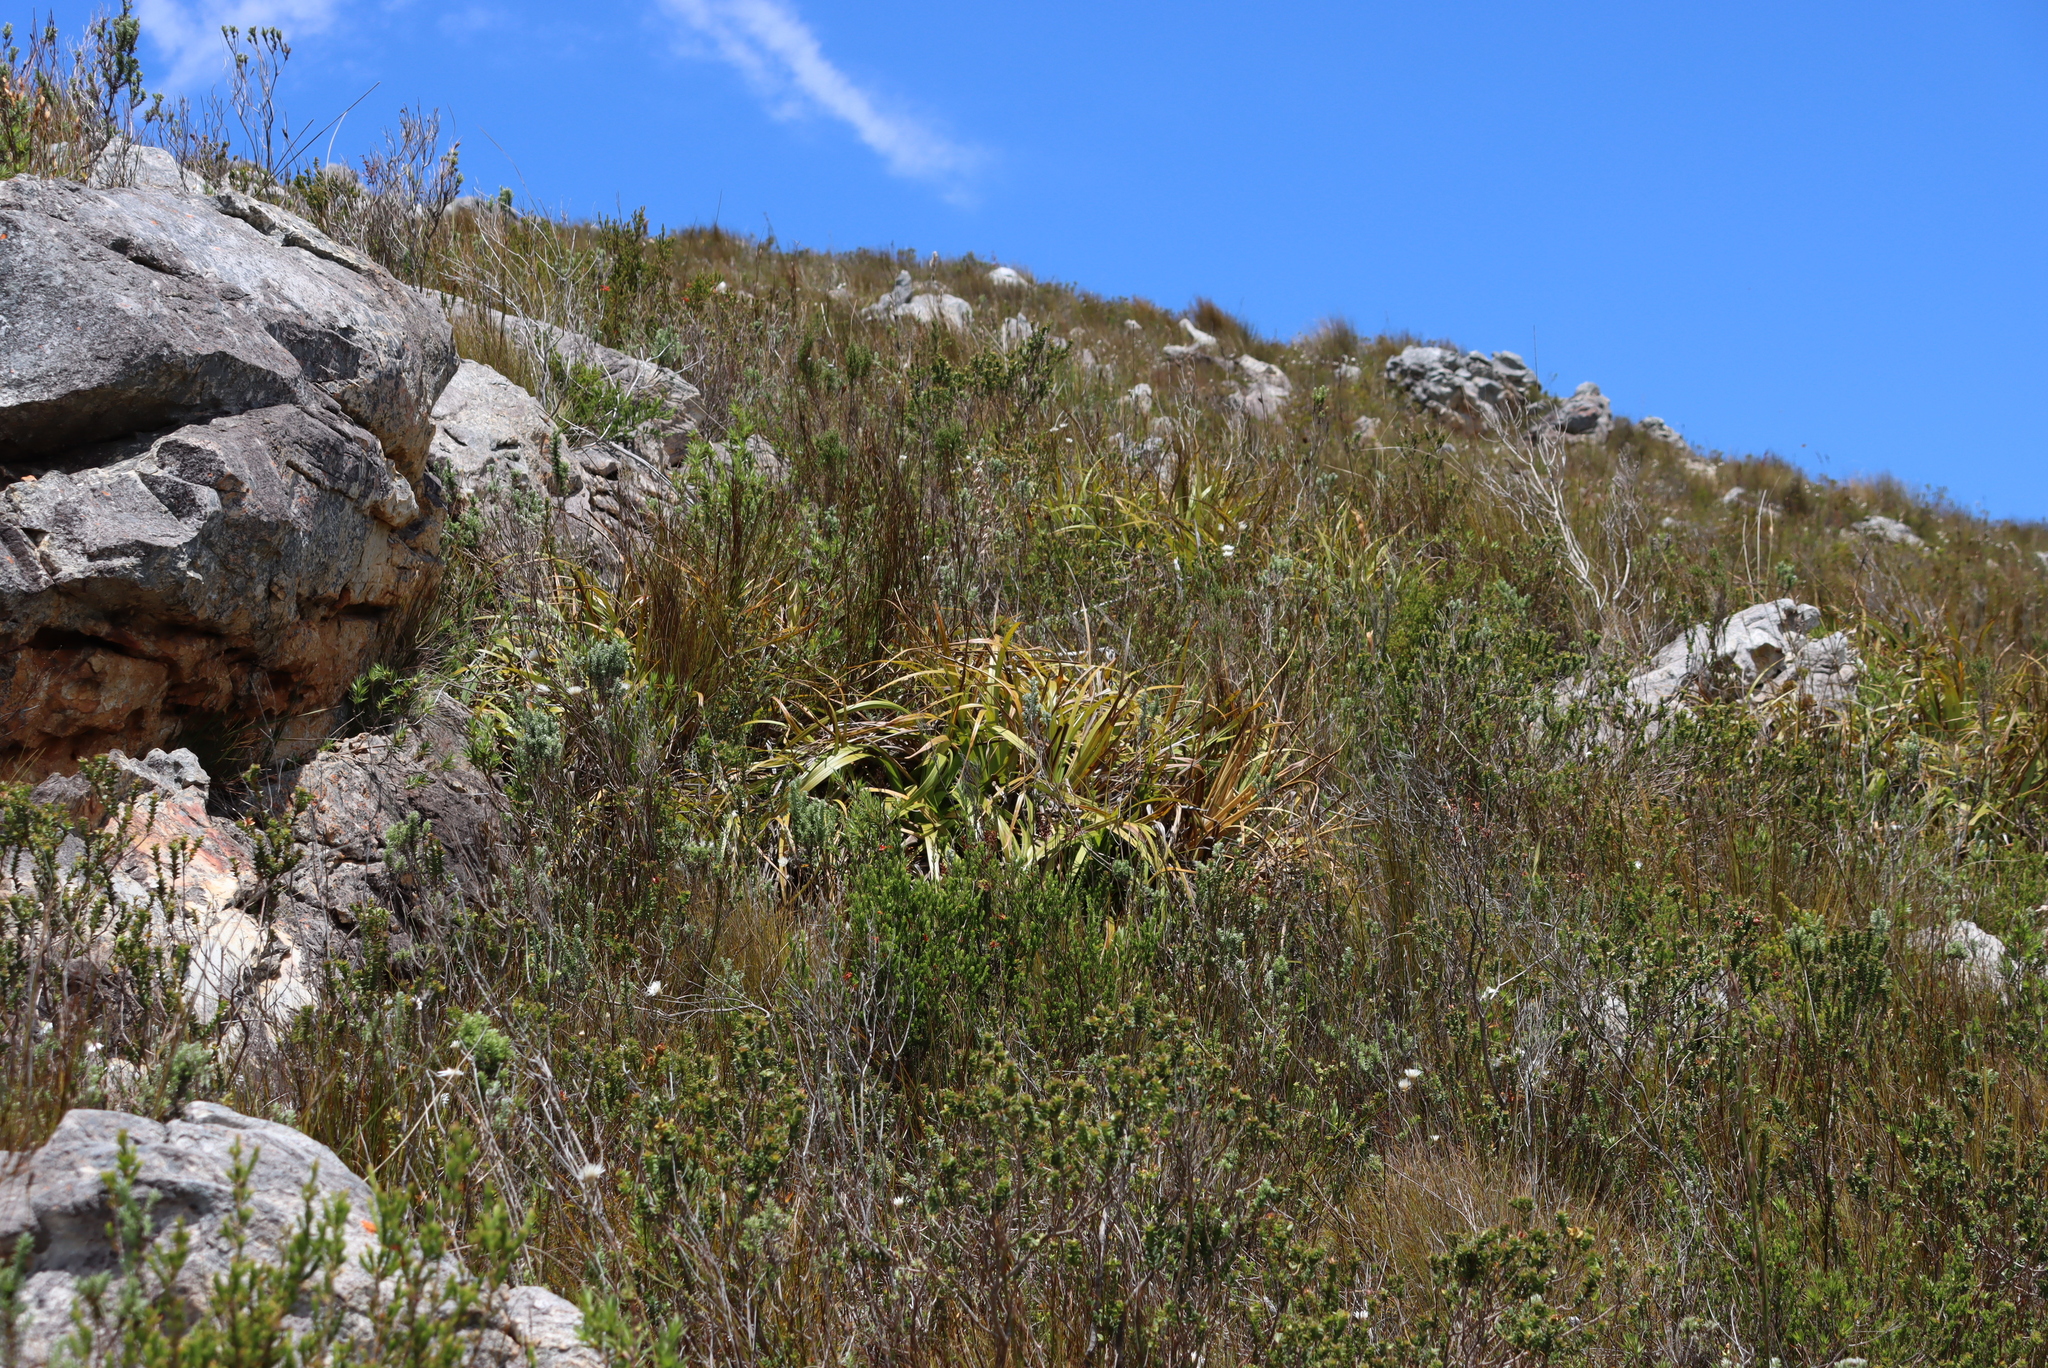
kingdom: Plantae
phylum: Tracheophyta
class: Liliopsida
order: Poales
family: Cyperaceae
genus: Tetraria
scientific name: Tetraria thermalis
